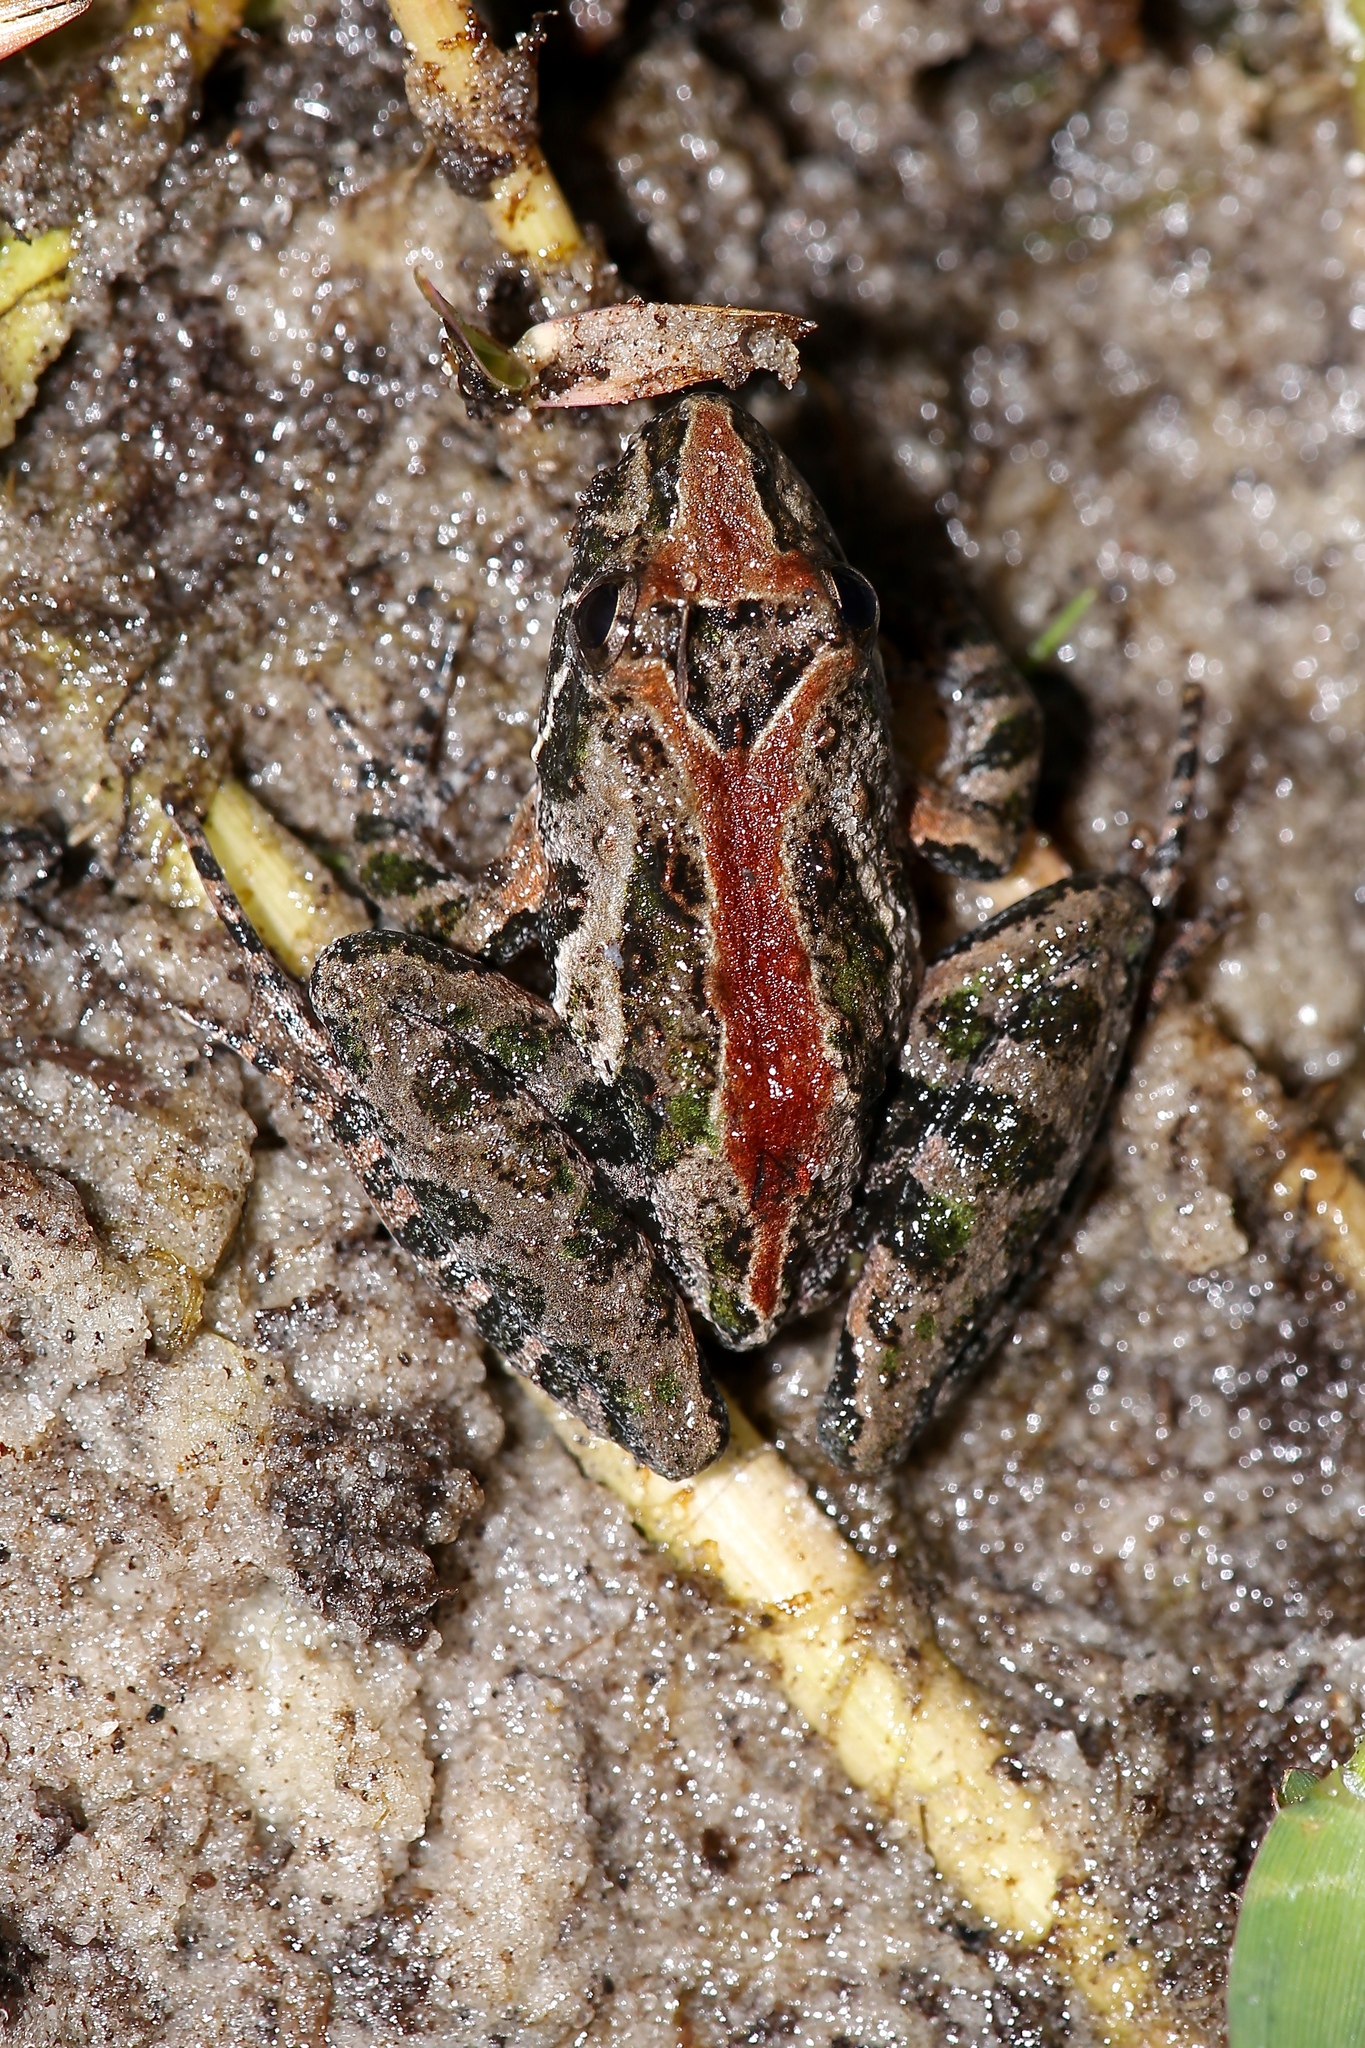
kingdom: Animalia
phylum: Chordata
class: Amphibia
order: Anura
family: Hylidae
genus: Acris
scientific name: Acris gryllus
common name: Southern cricket frog
